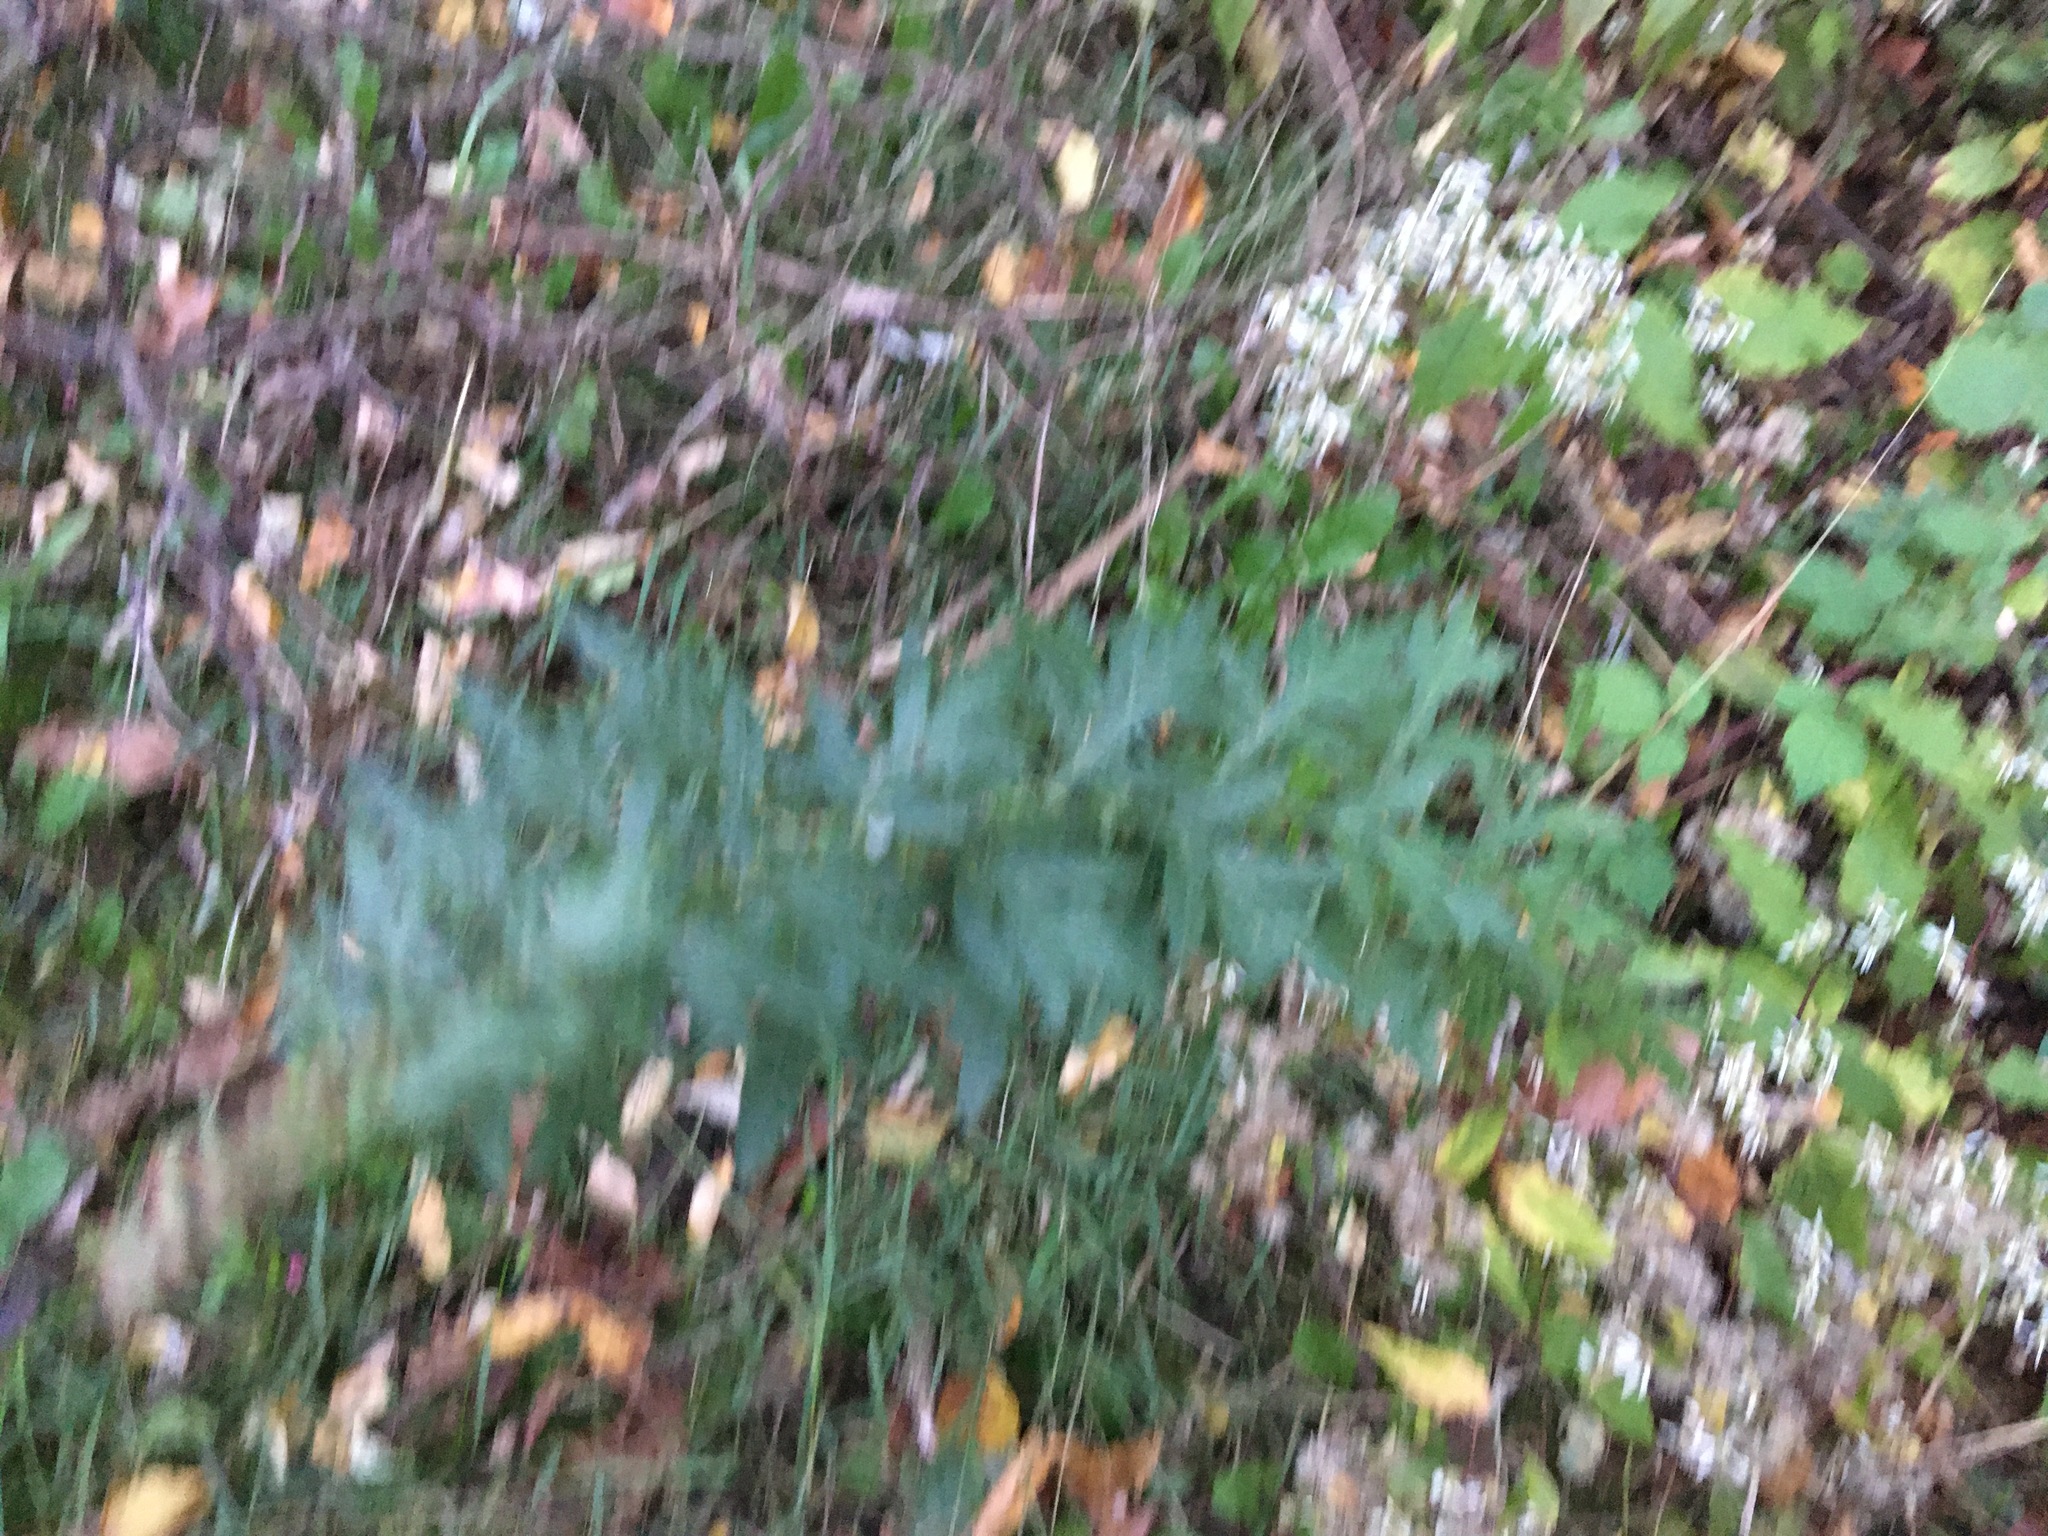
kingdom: Plantae
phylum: Tracheophyta
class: Magnoliopsida
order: Asterales
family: Asteraceae
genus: Artemisia
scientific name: Artemisia vulgaris
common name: Mugwort
